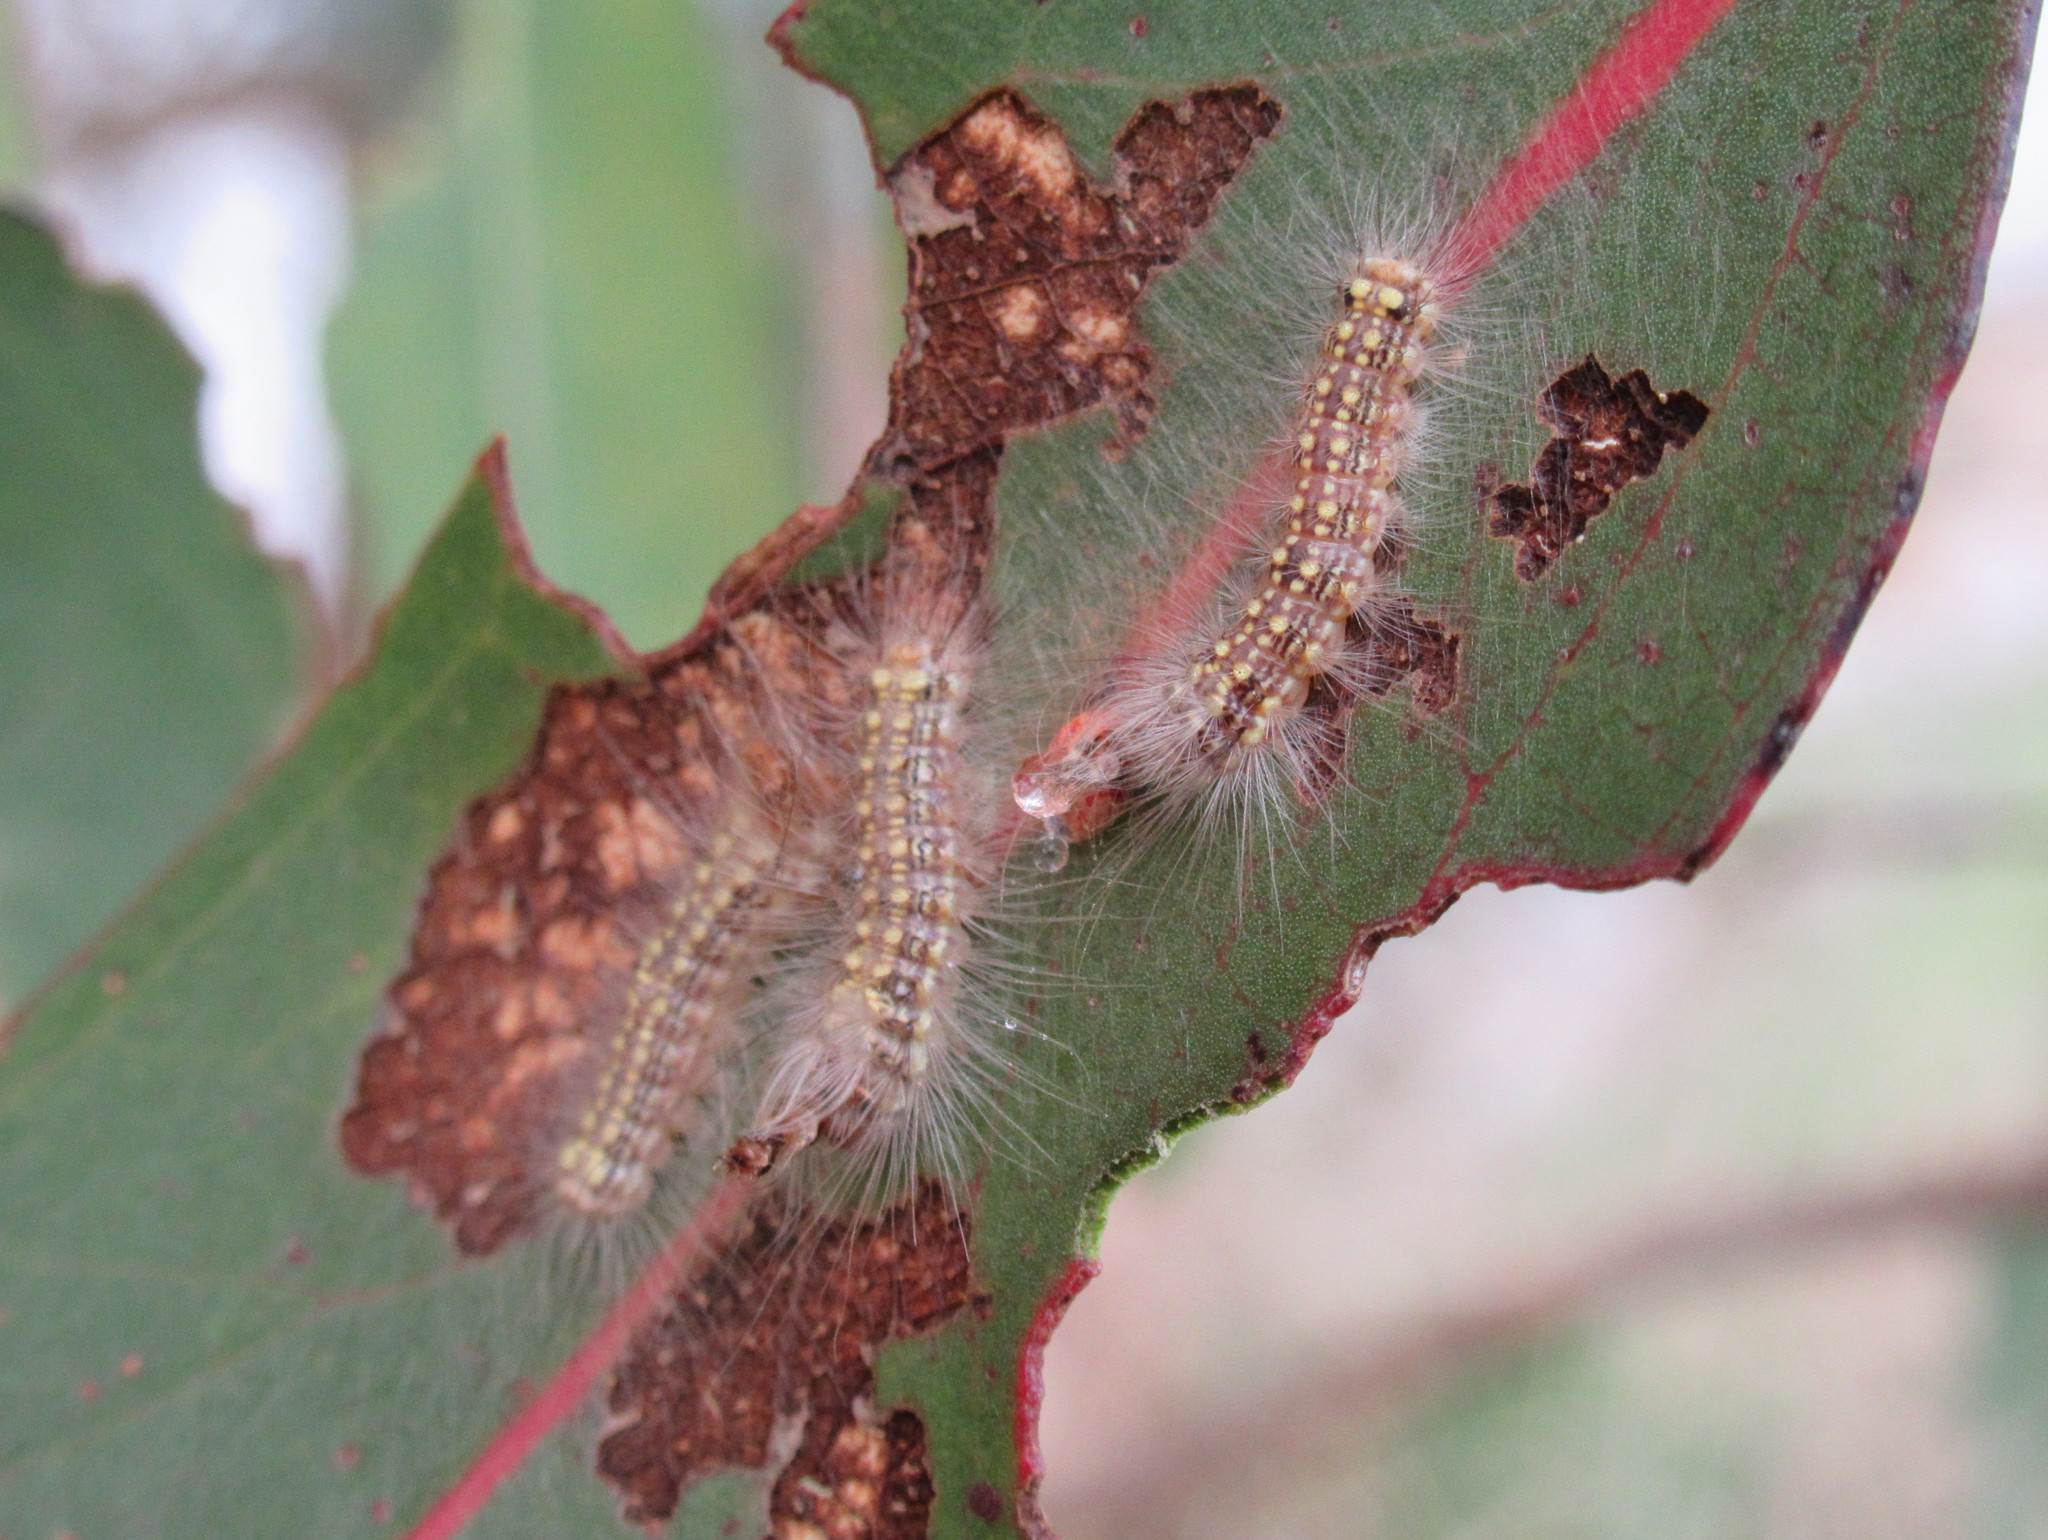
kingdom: Animalia
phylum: Arthropoda
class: Insecta
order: Lepidoptera
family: Nolidae
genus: Uraba
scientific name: Uraba lugens
